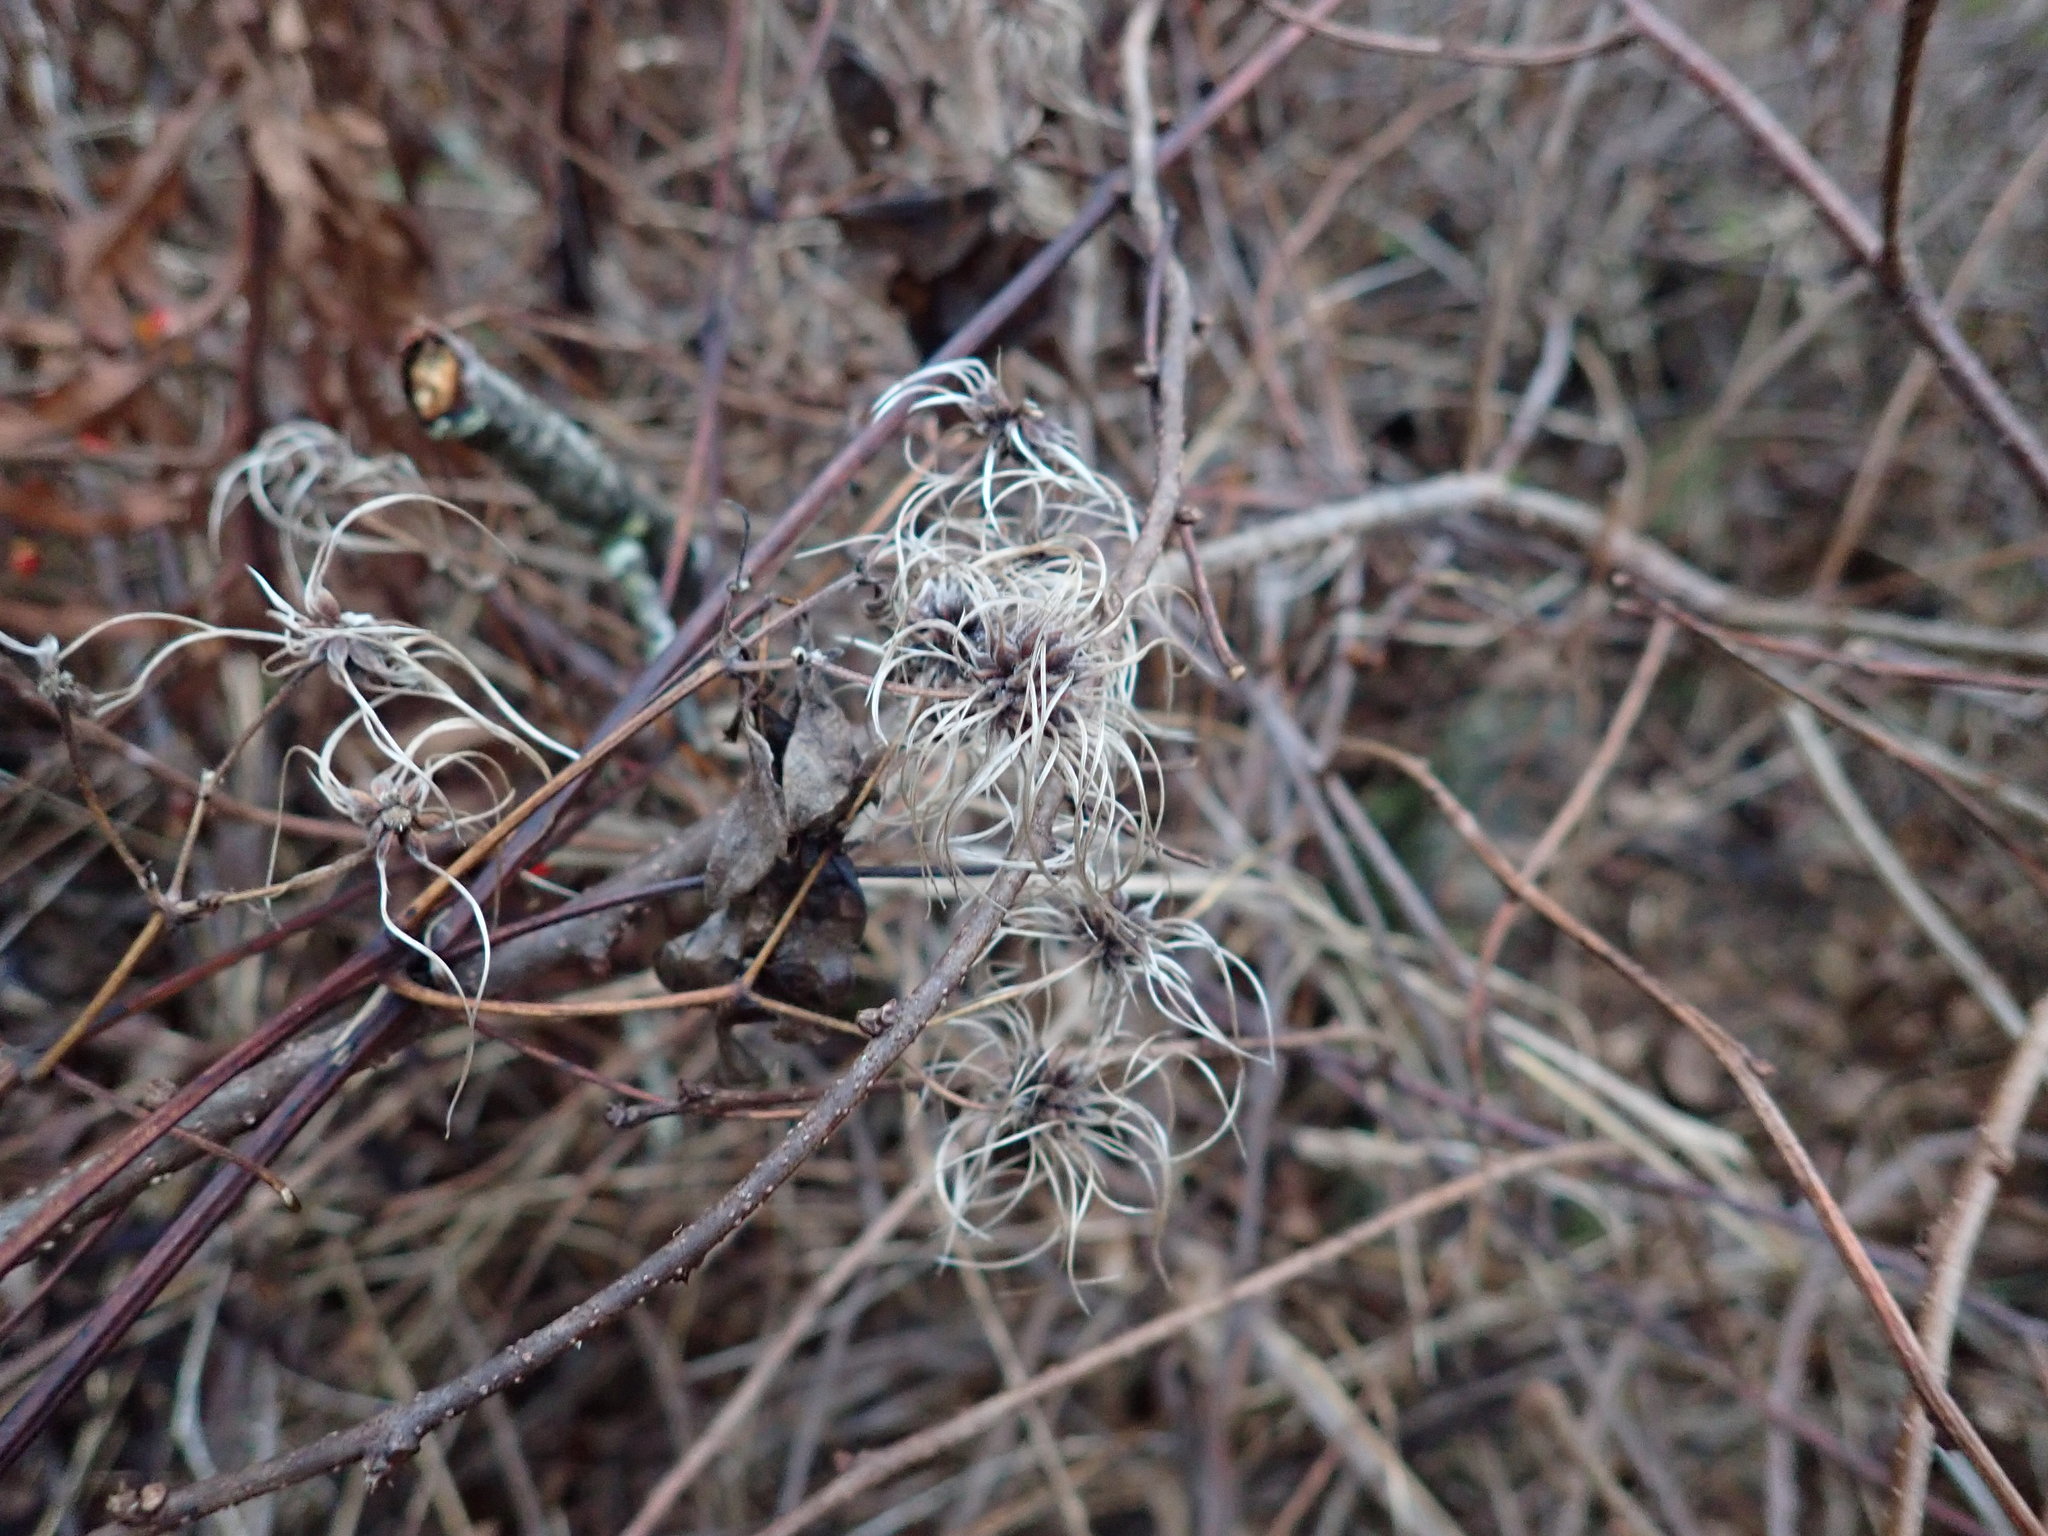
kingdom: Plantae
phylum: Tracheophyta
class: Magnoliopsida
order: Ranunculales
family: Ranunculaceae
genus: Clematis
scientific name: Clematis virginiana
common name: Virgin's-bower
